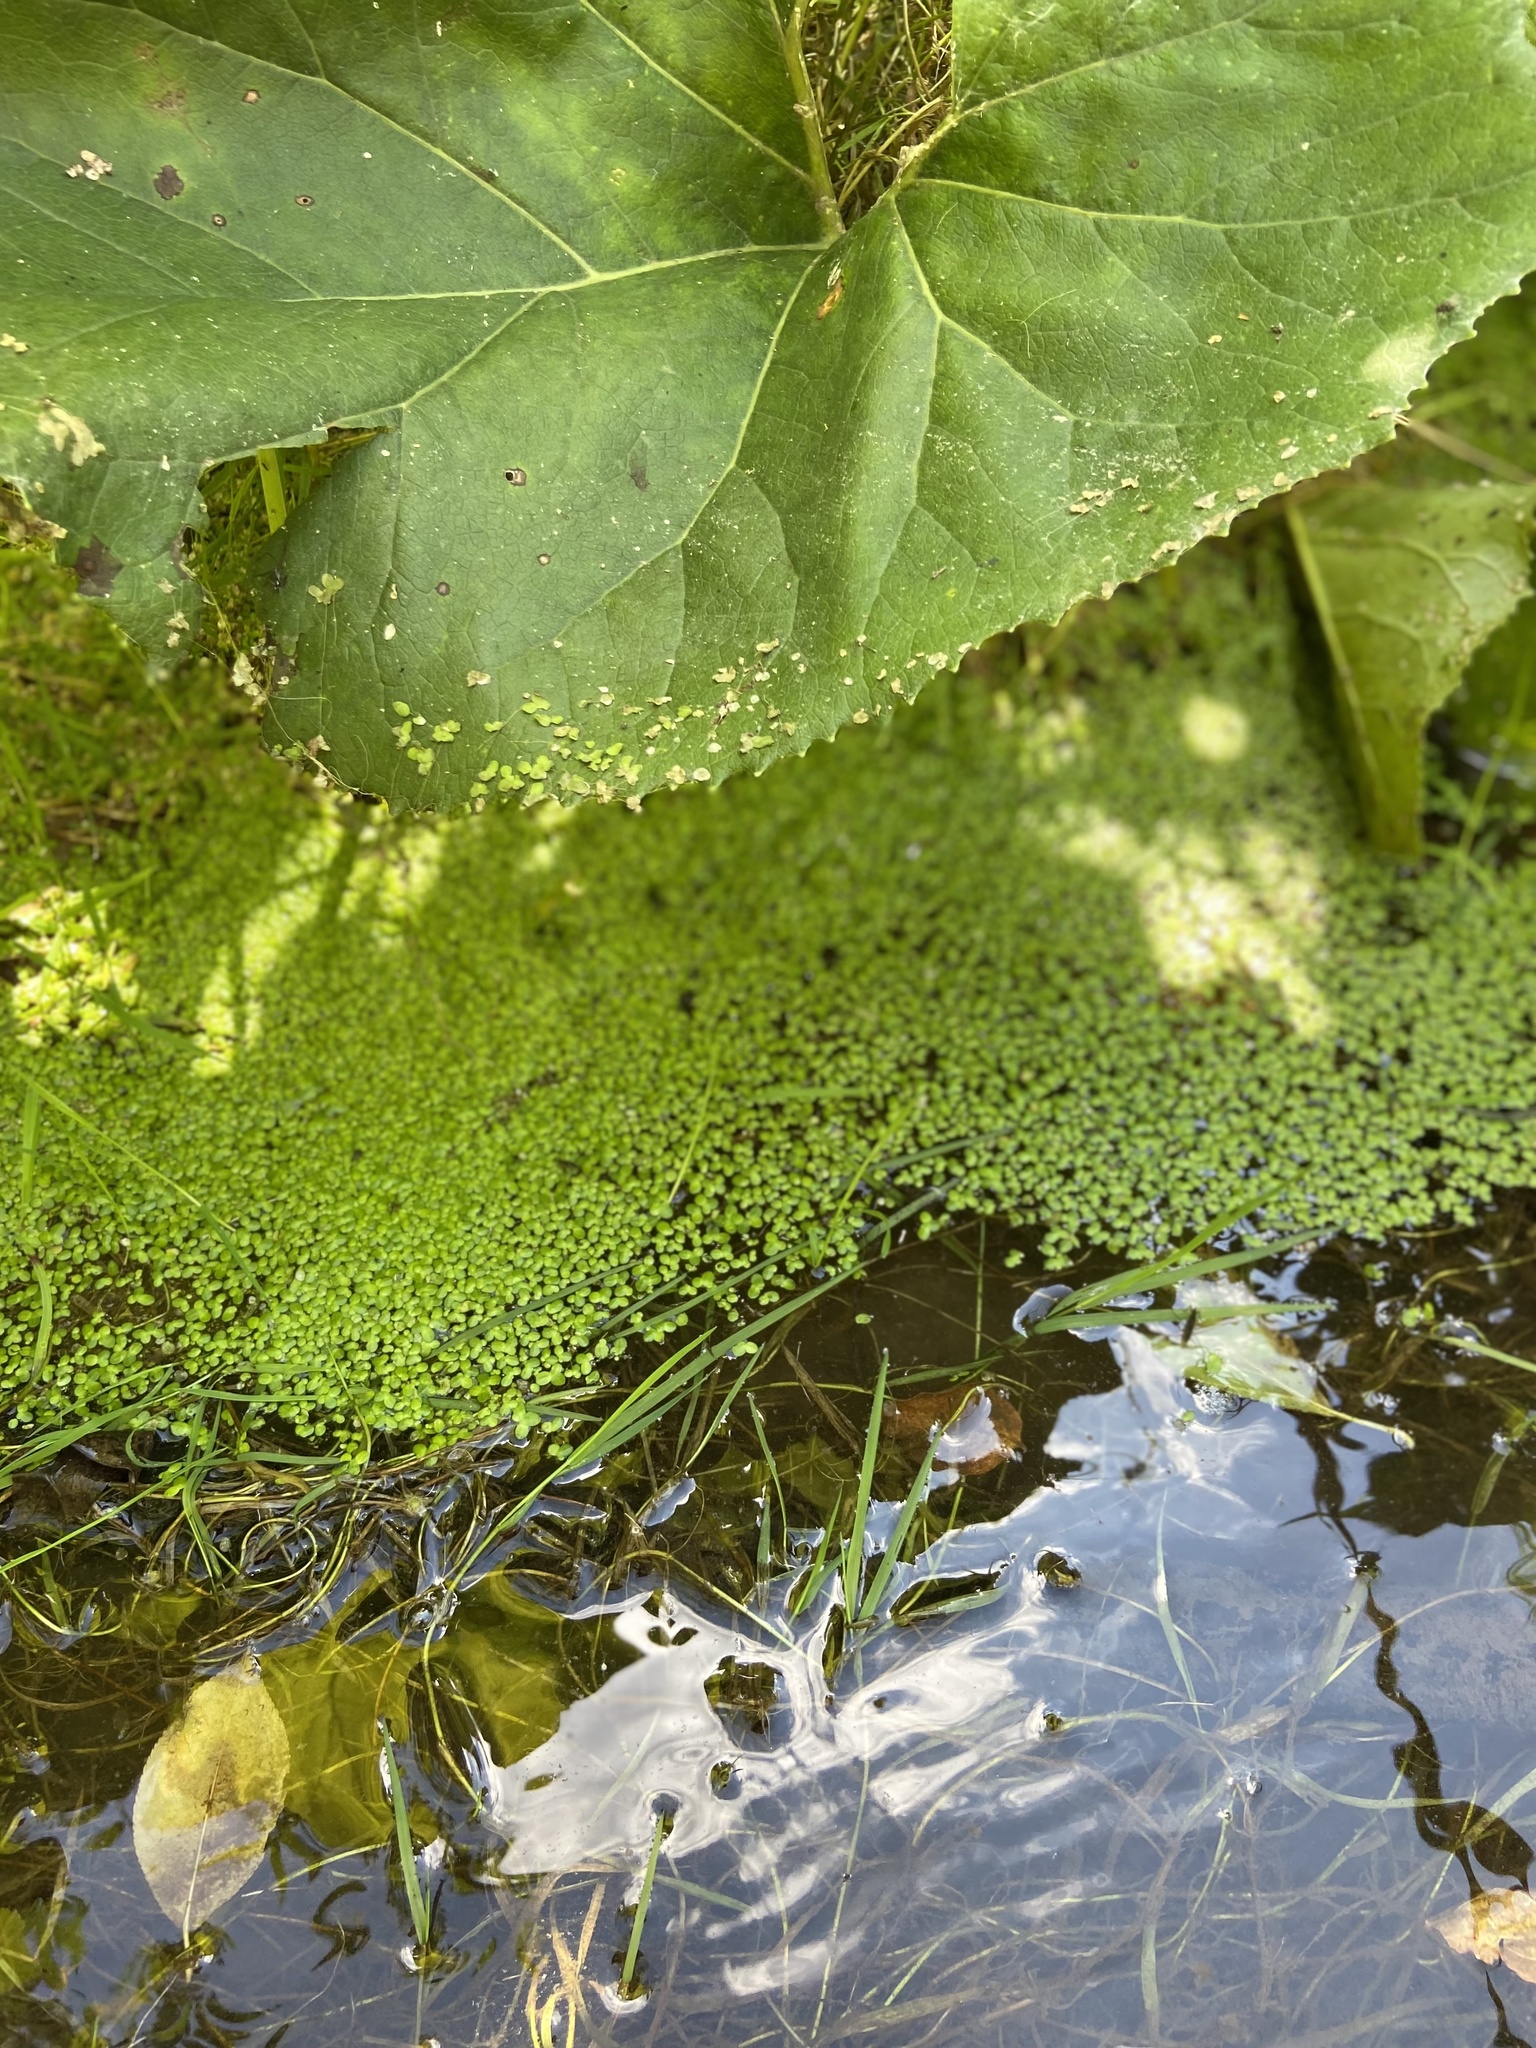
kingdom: Plantae
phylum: Tracheophyta
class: Liliopsida
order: Alismatales
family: Araceae
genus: Lemna
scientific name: Lemna
